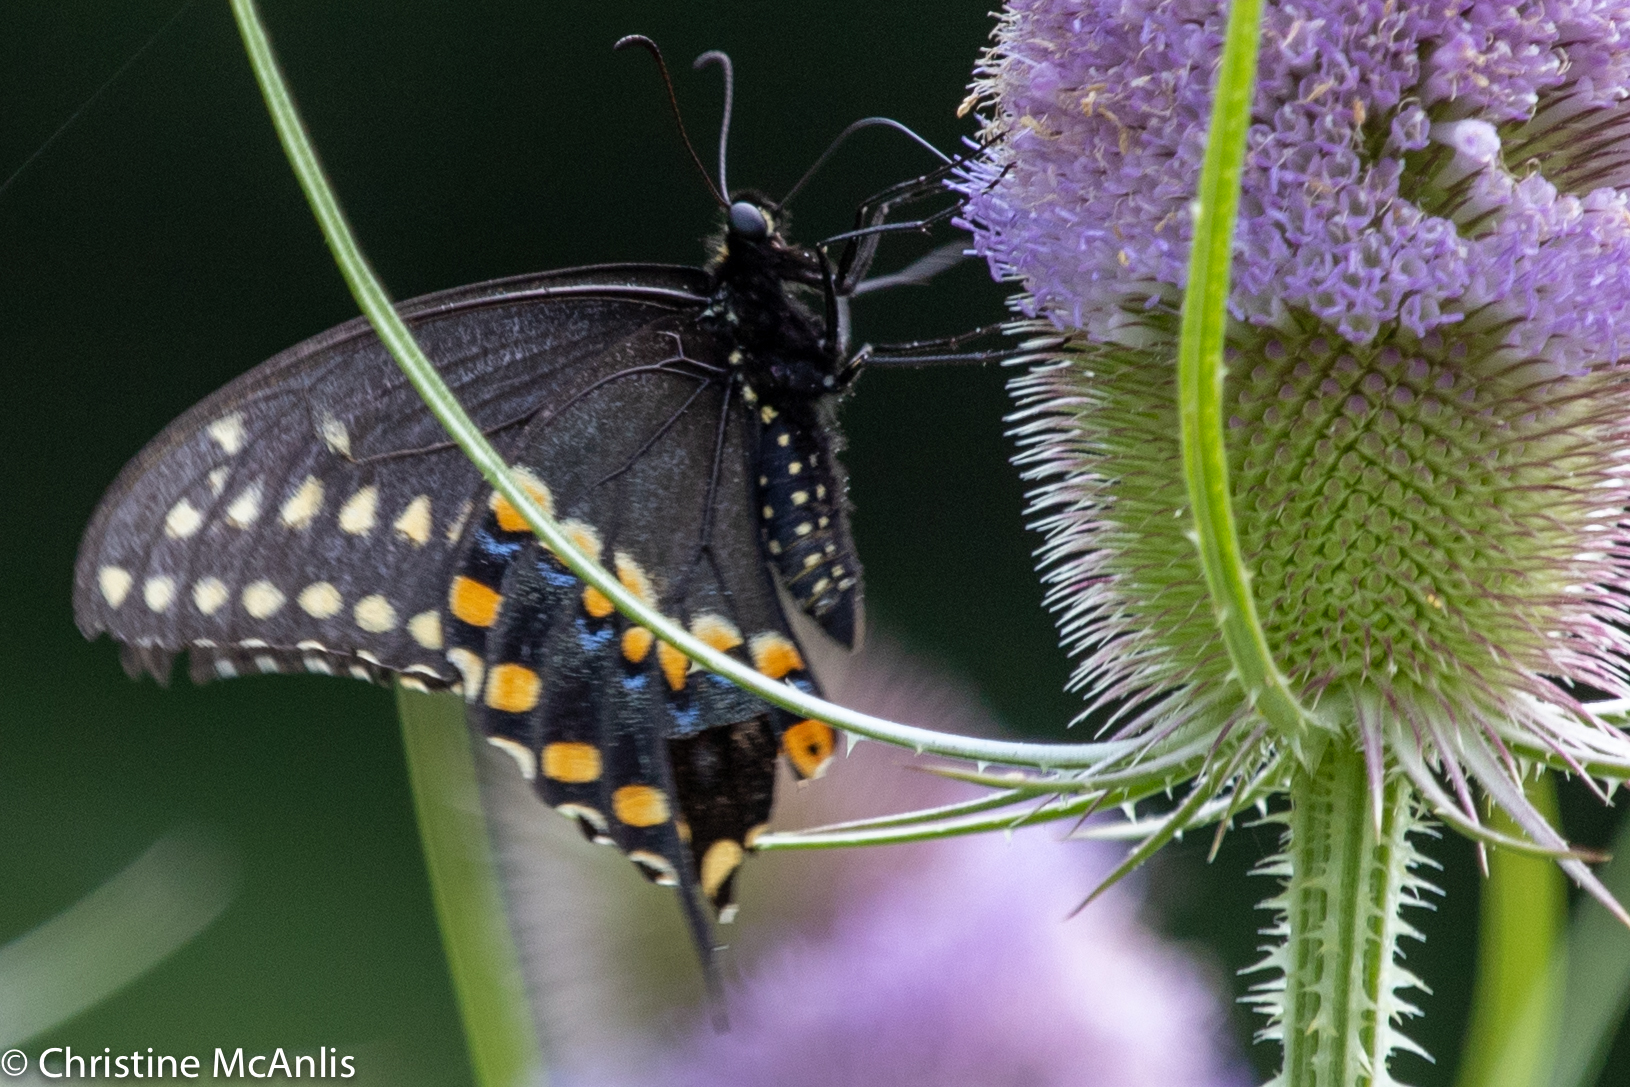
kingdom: Animalia
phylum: Arthropoda
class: Insecta
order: Lepidoptera
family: Papilionidae
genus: Papilio
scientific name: Papilio polyxenes
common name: Black swallowtail
